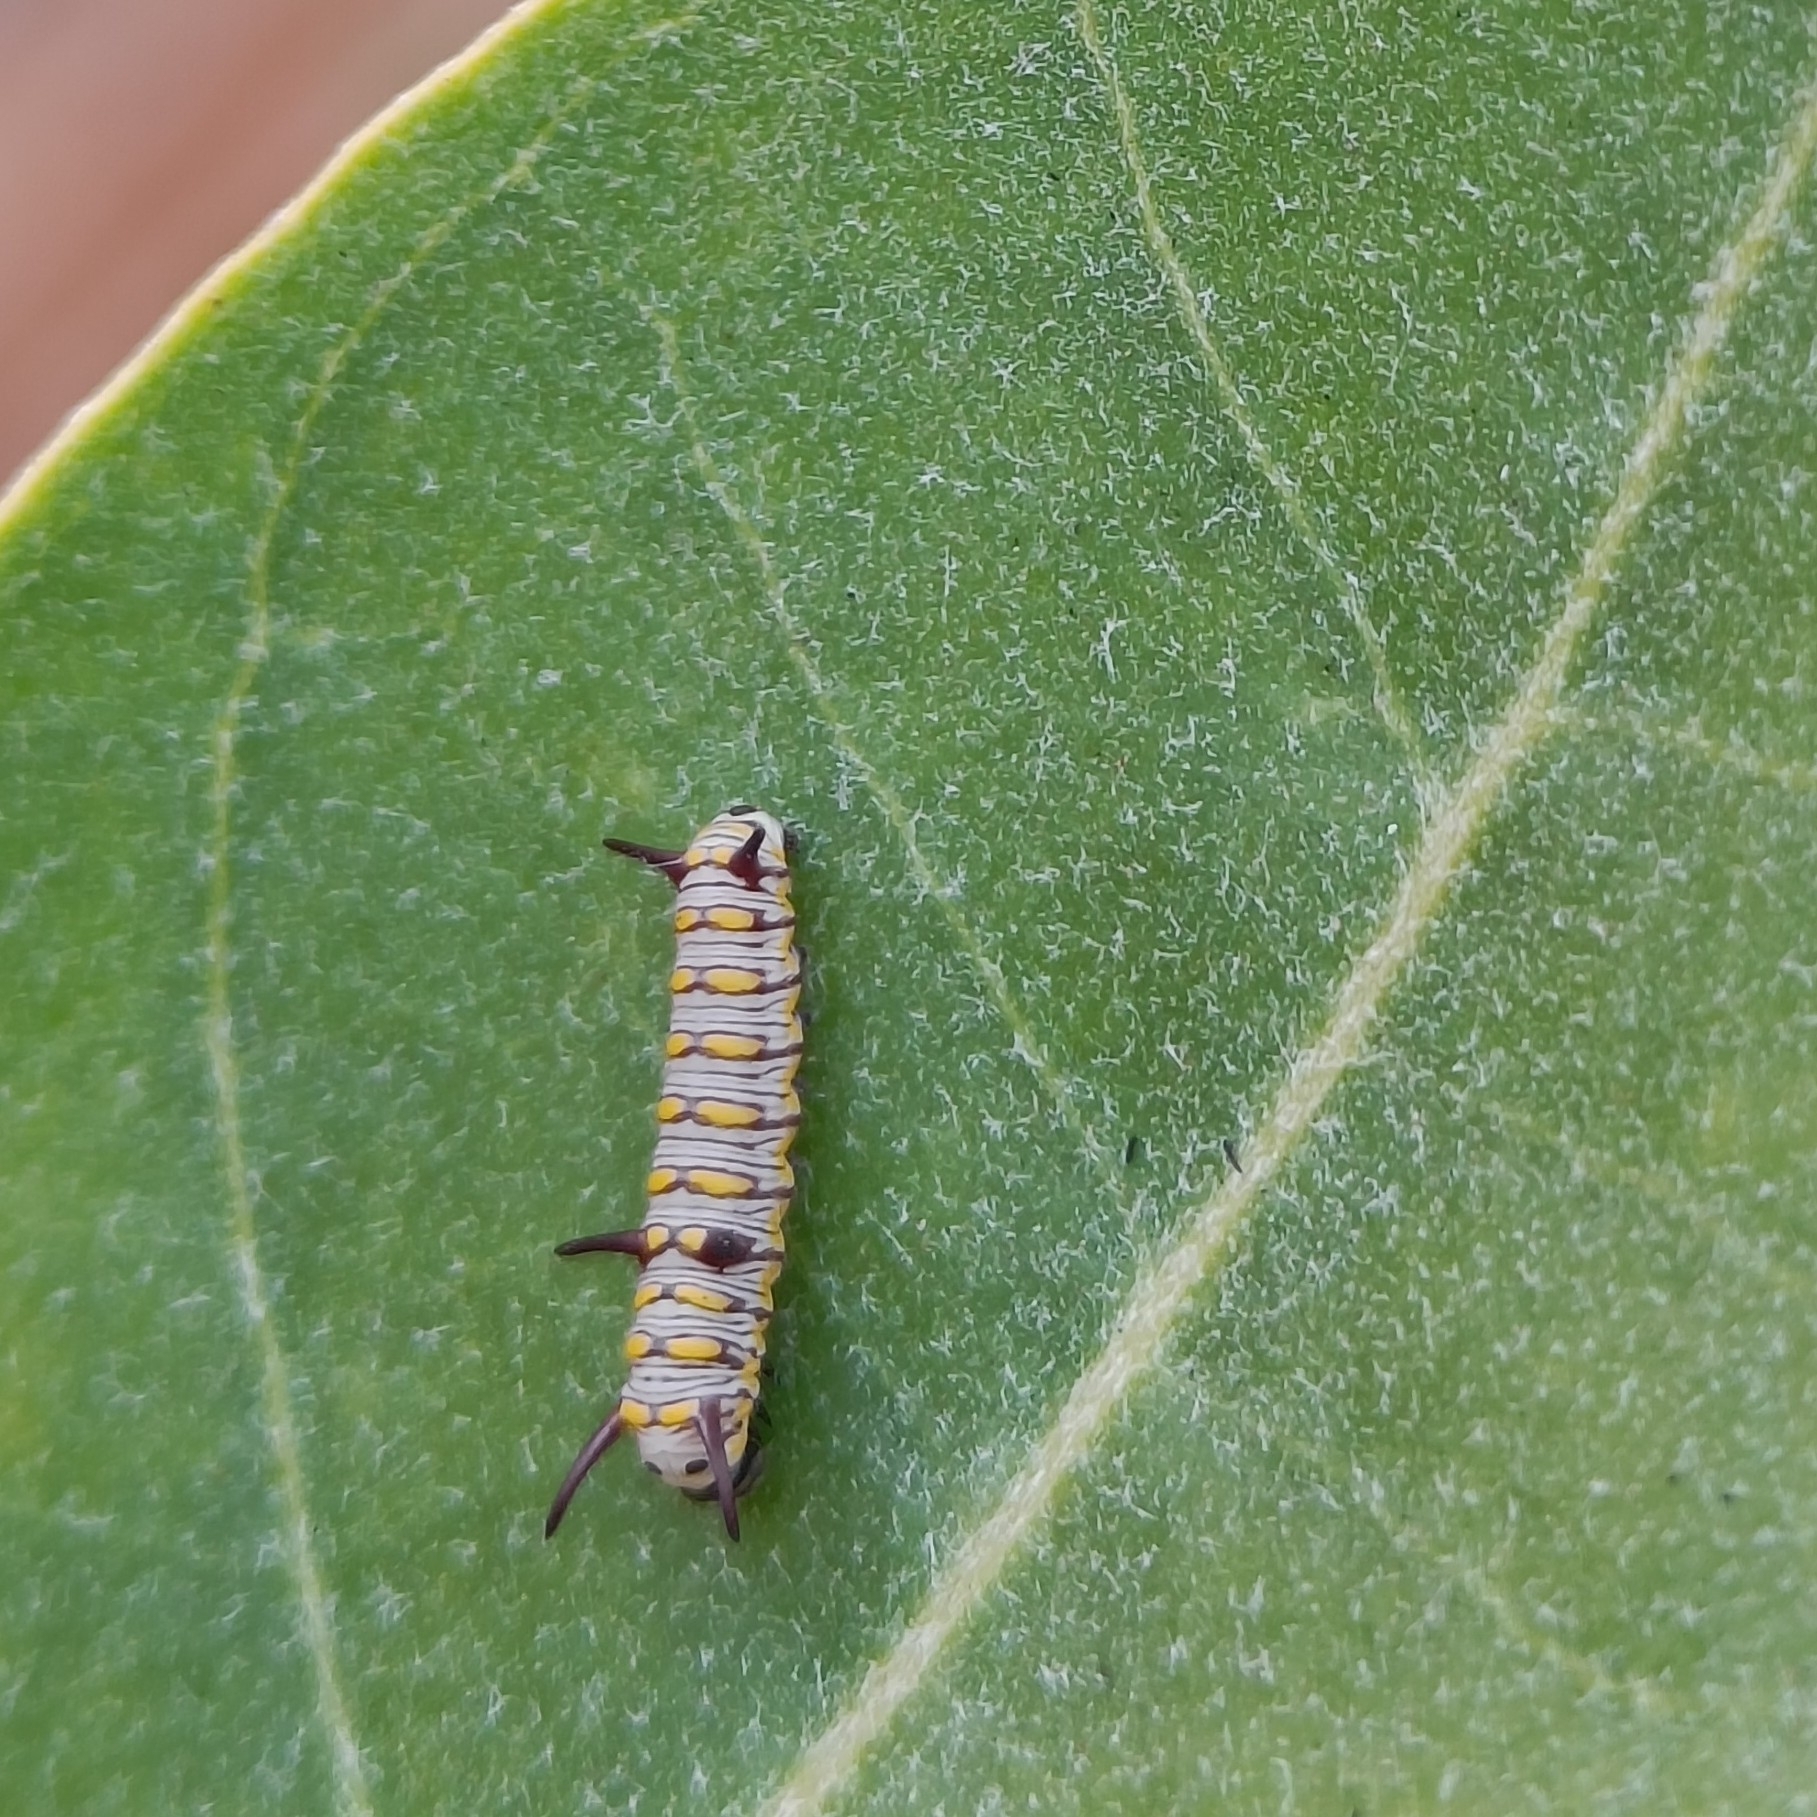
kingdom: Animalia
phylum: Arthropoda
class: Insecta
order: Lepidoptera
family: Nymphalidae
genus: Danaus
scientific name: Danaus chrysippus
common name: Plain tiger
